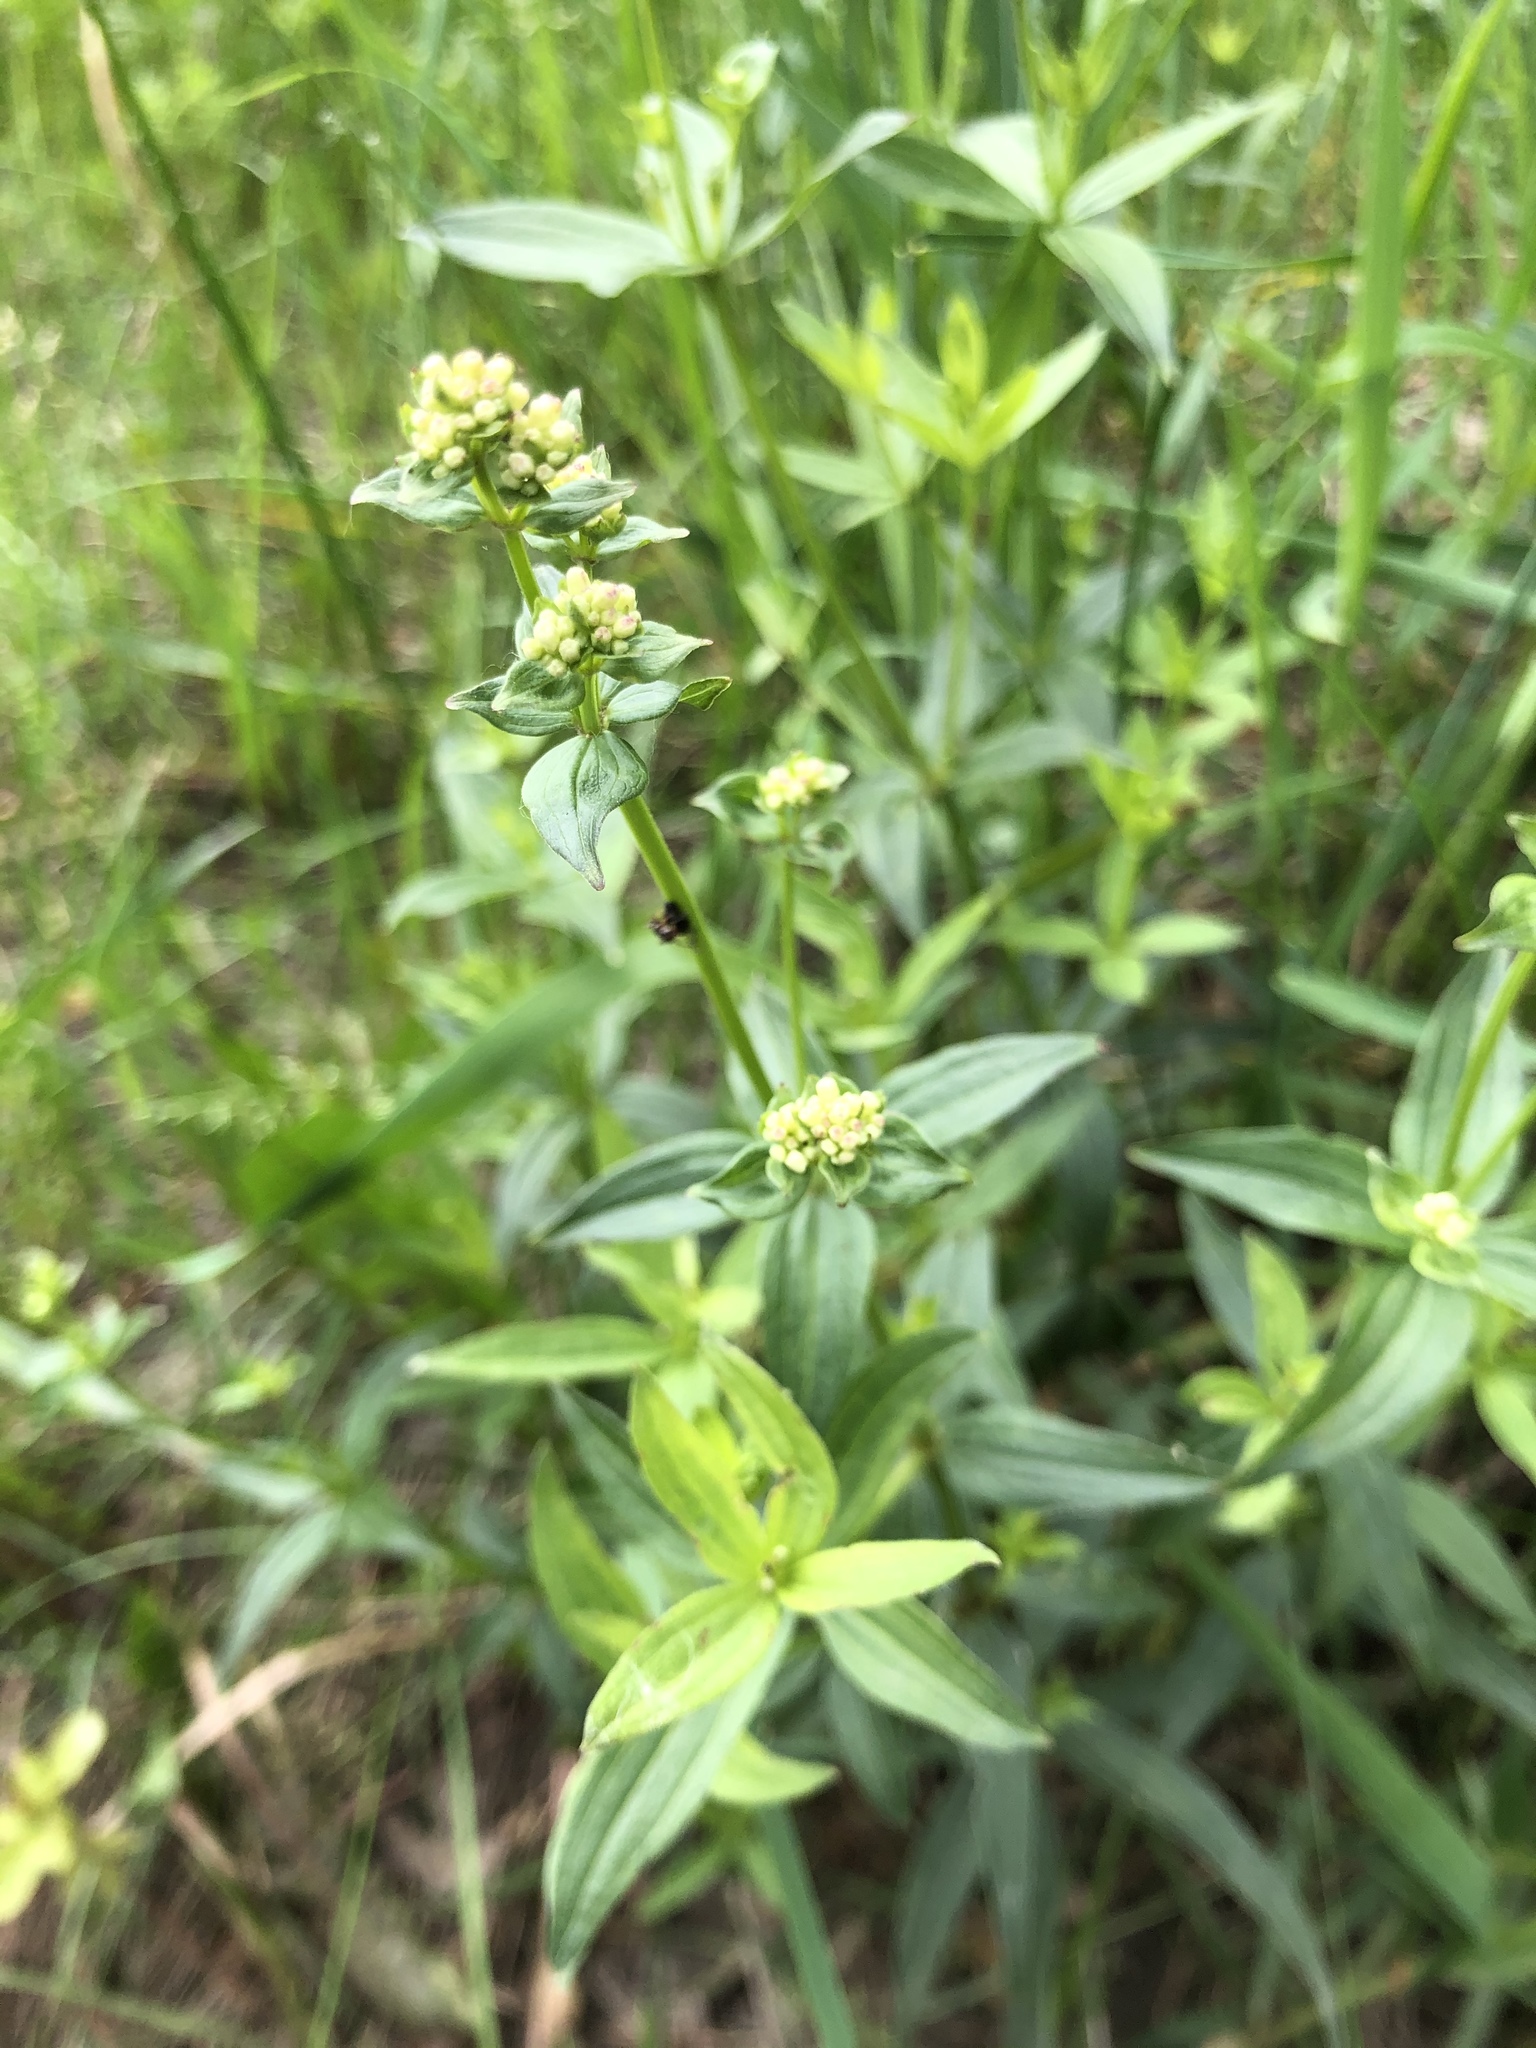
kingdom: Plantae
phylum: Tracheophyta
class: Magnoliopsida
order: Gentianales
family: Rubiaceae
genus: Galium
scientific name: Galium boreale
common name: Northern bedstraw
